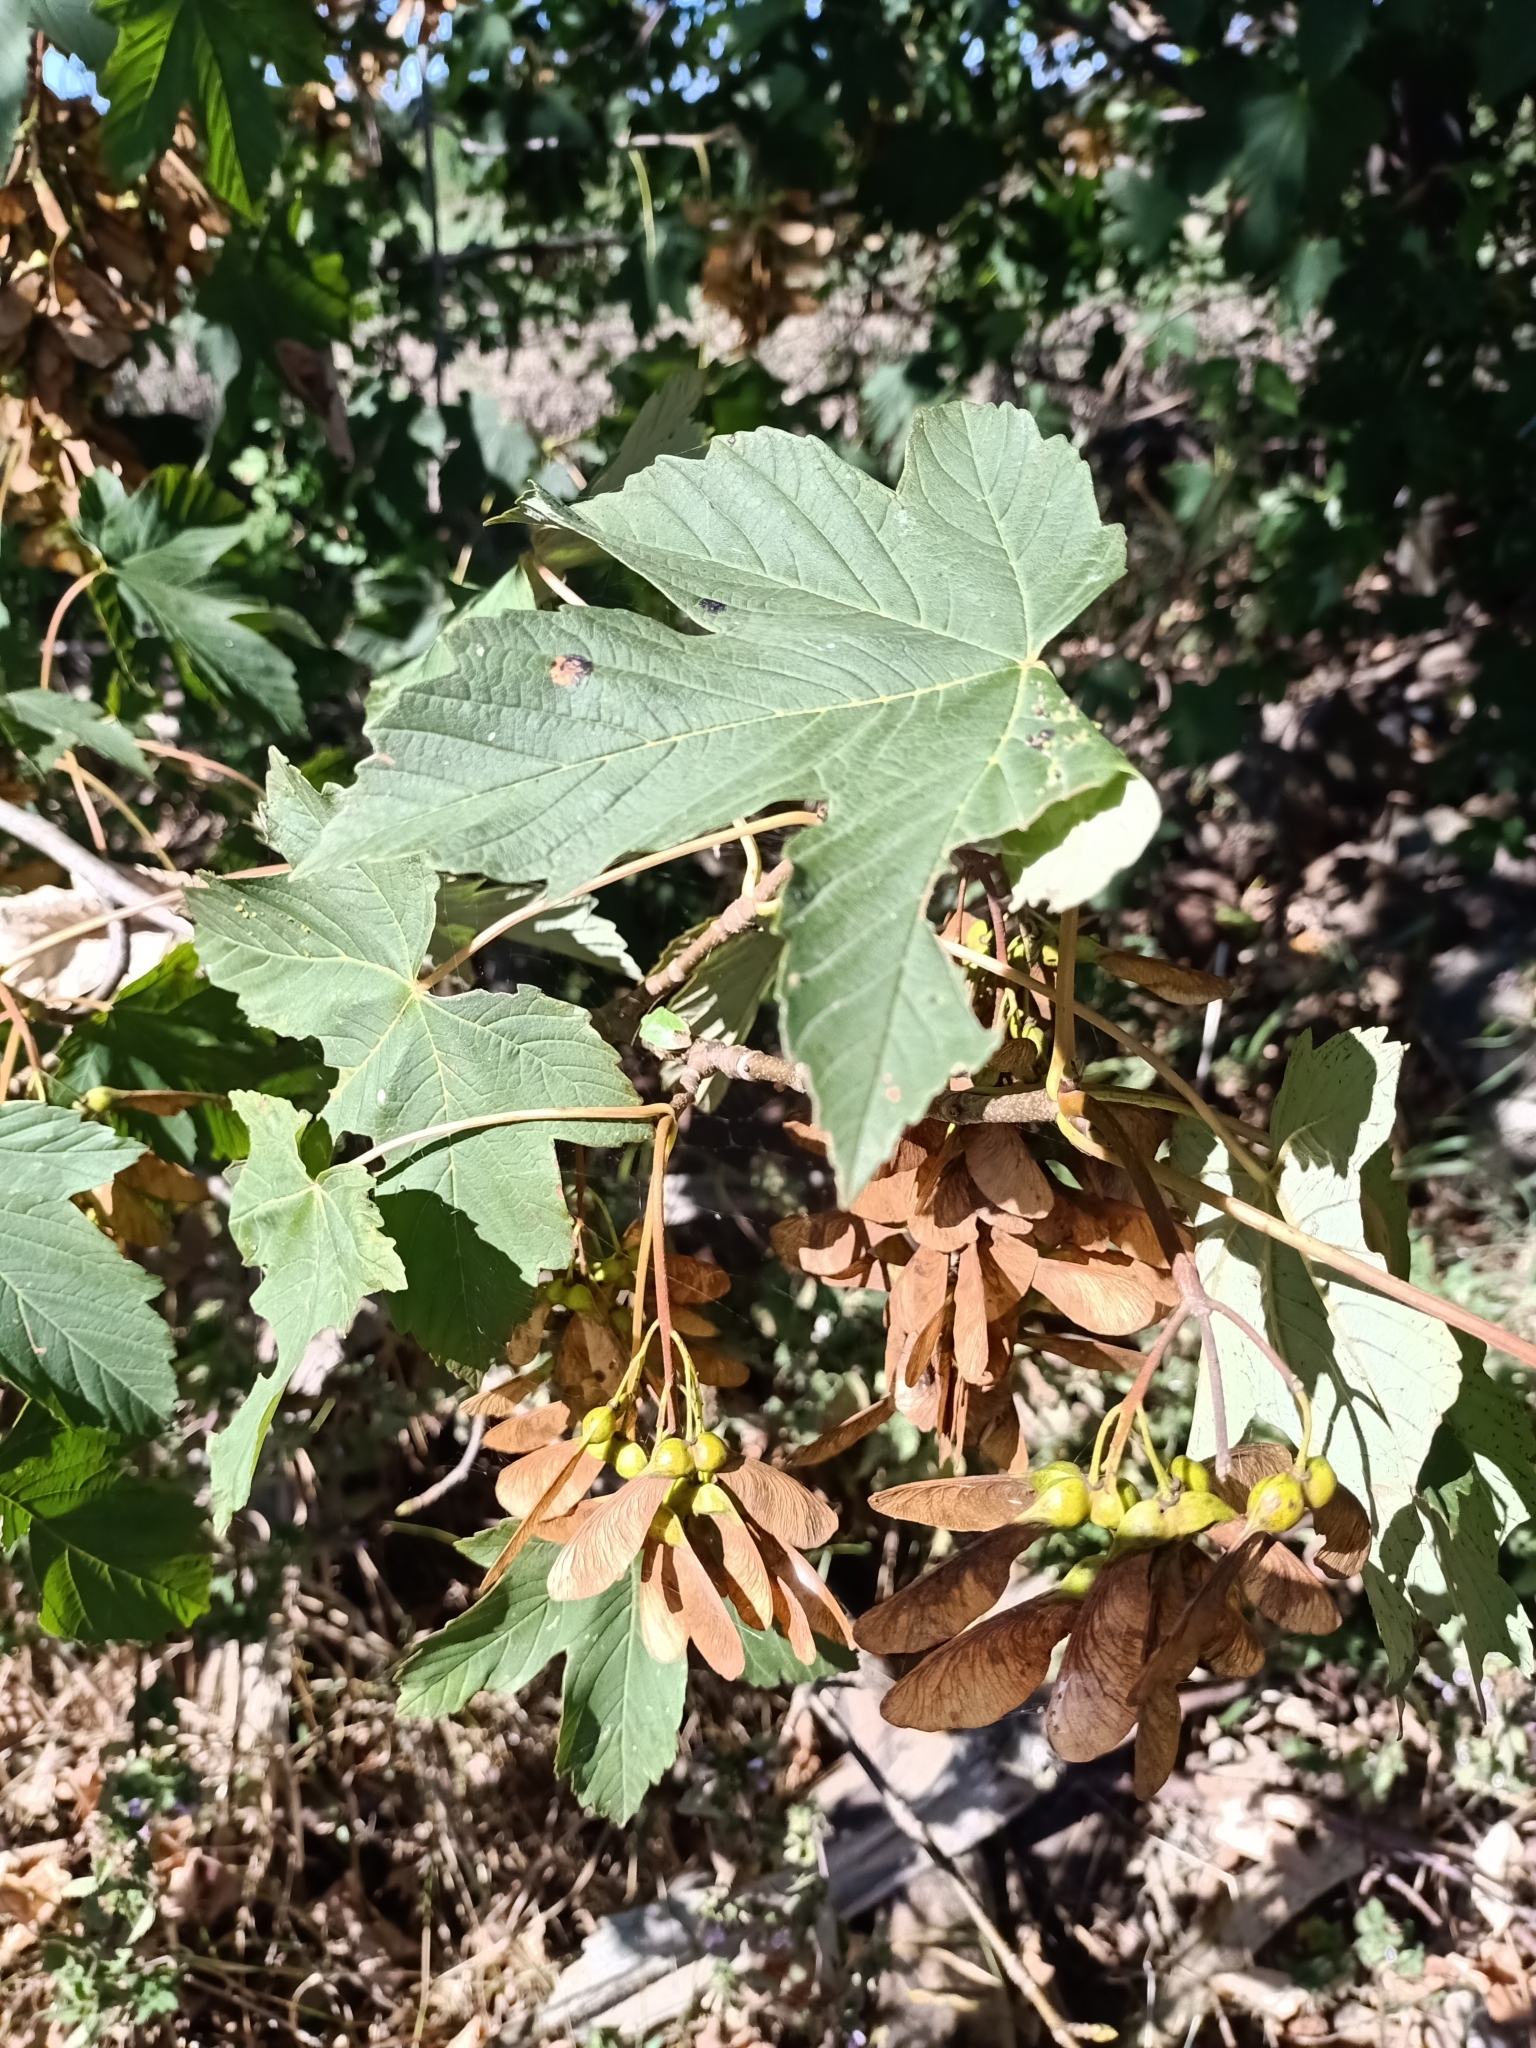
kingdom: Plantae
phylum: Tracheophyta
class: Magnoliopsida
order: Sapindales
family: Sapindaceae
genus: Acer
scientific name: Acer pseudoplatanus
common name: Sycamore
